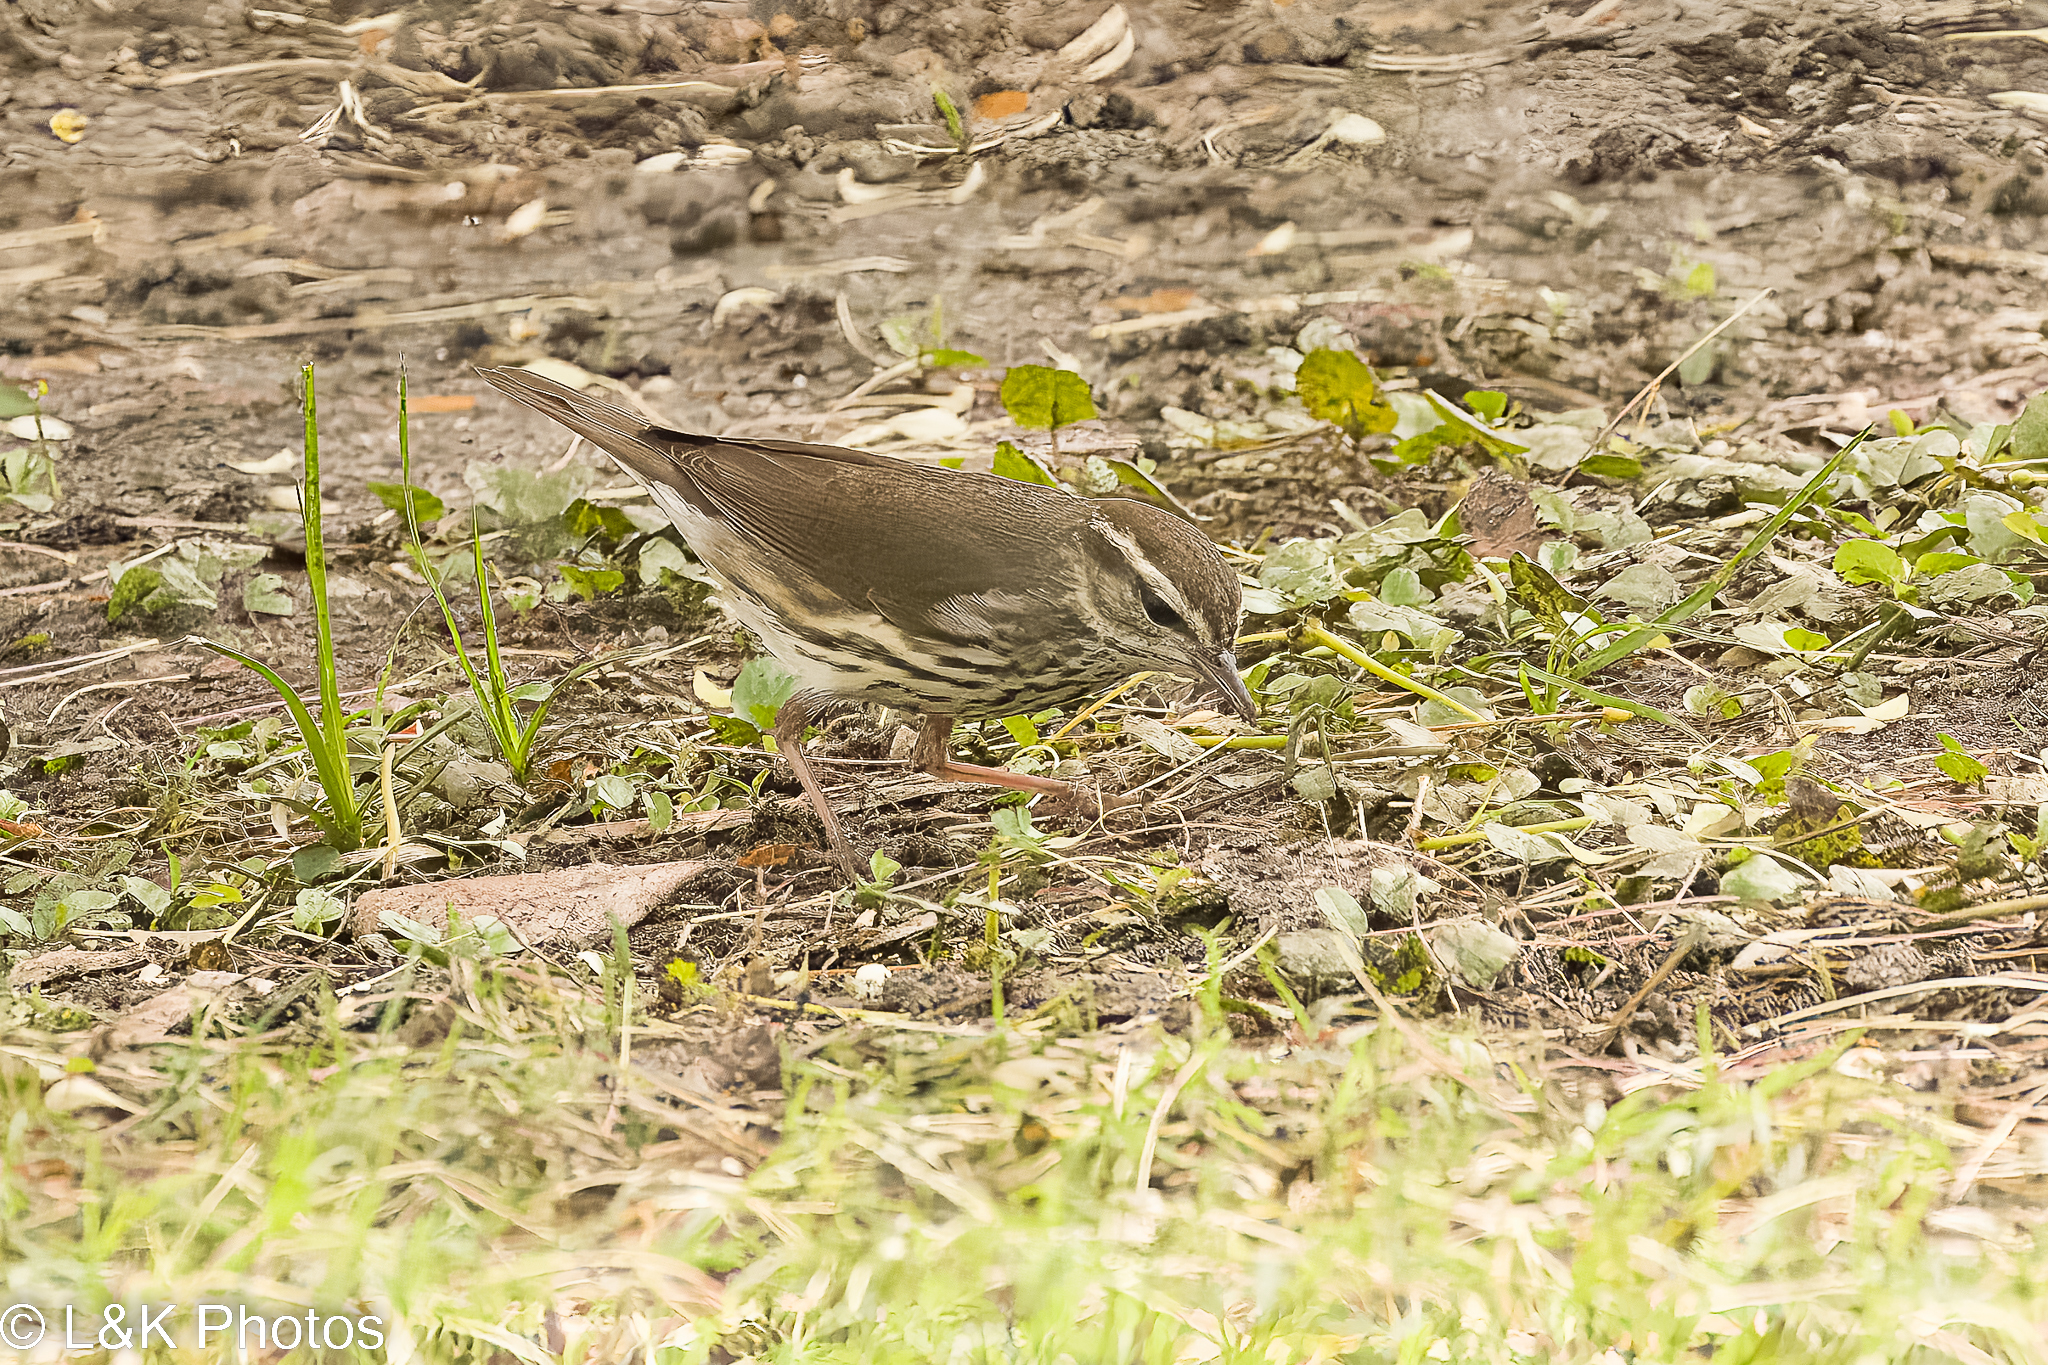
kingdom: Animalia
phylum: Chordata
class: Aves
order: Passeriformes
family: Parulidae
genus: Parkesia
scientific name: Parkesia noveboracensis
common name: Northern waterthrush
